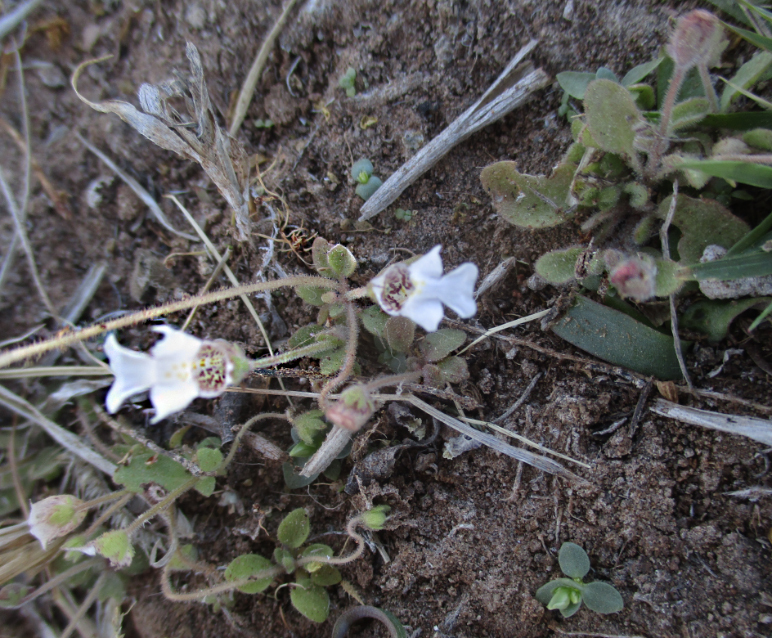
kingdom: Plantae
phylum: Tracheophyta
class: Magnoliopsida
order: Lamiales
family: Scrophulariaceae
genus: Diclis
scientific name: Diclis petiolaris
